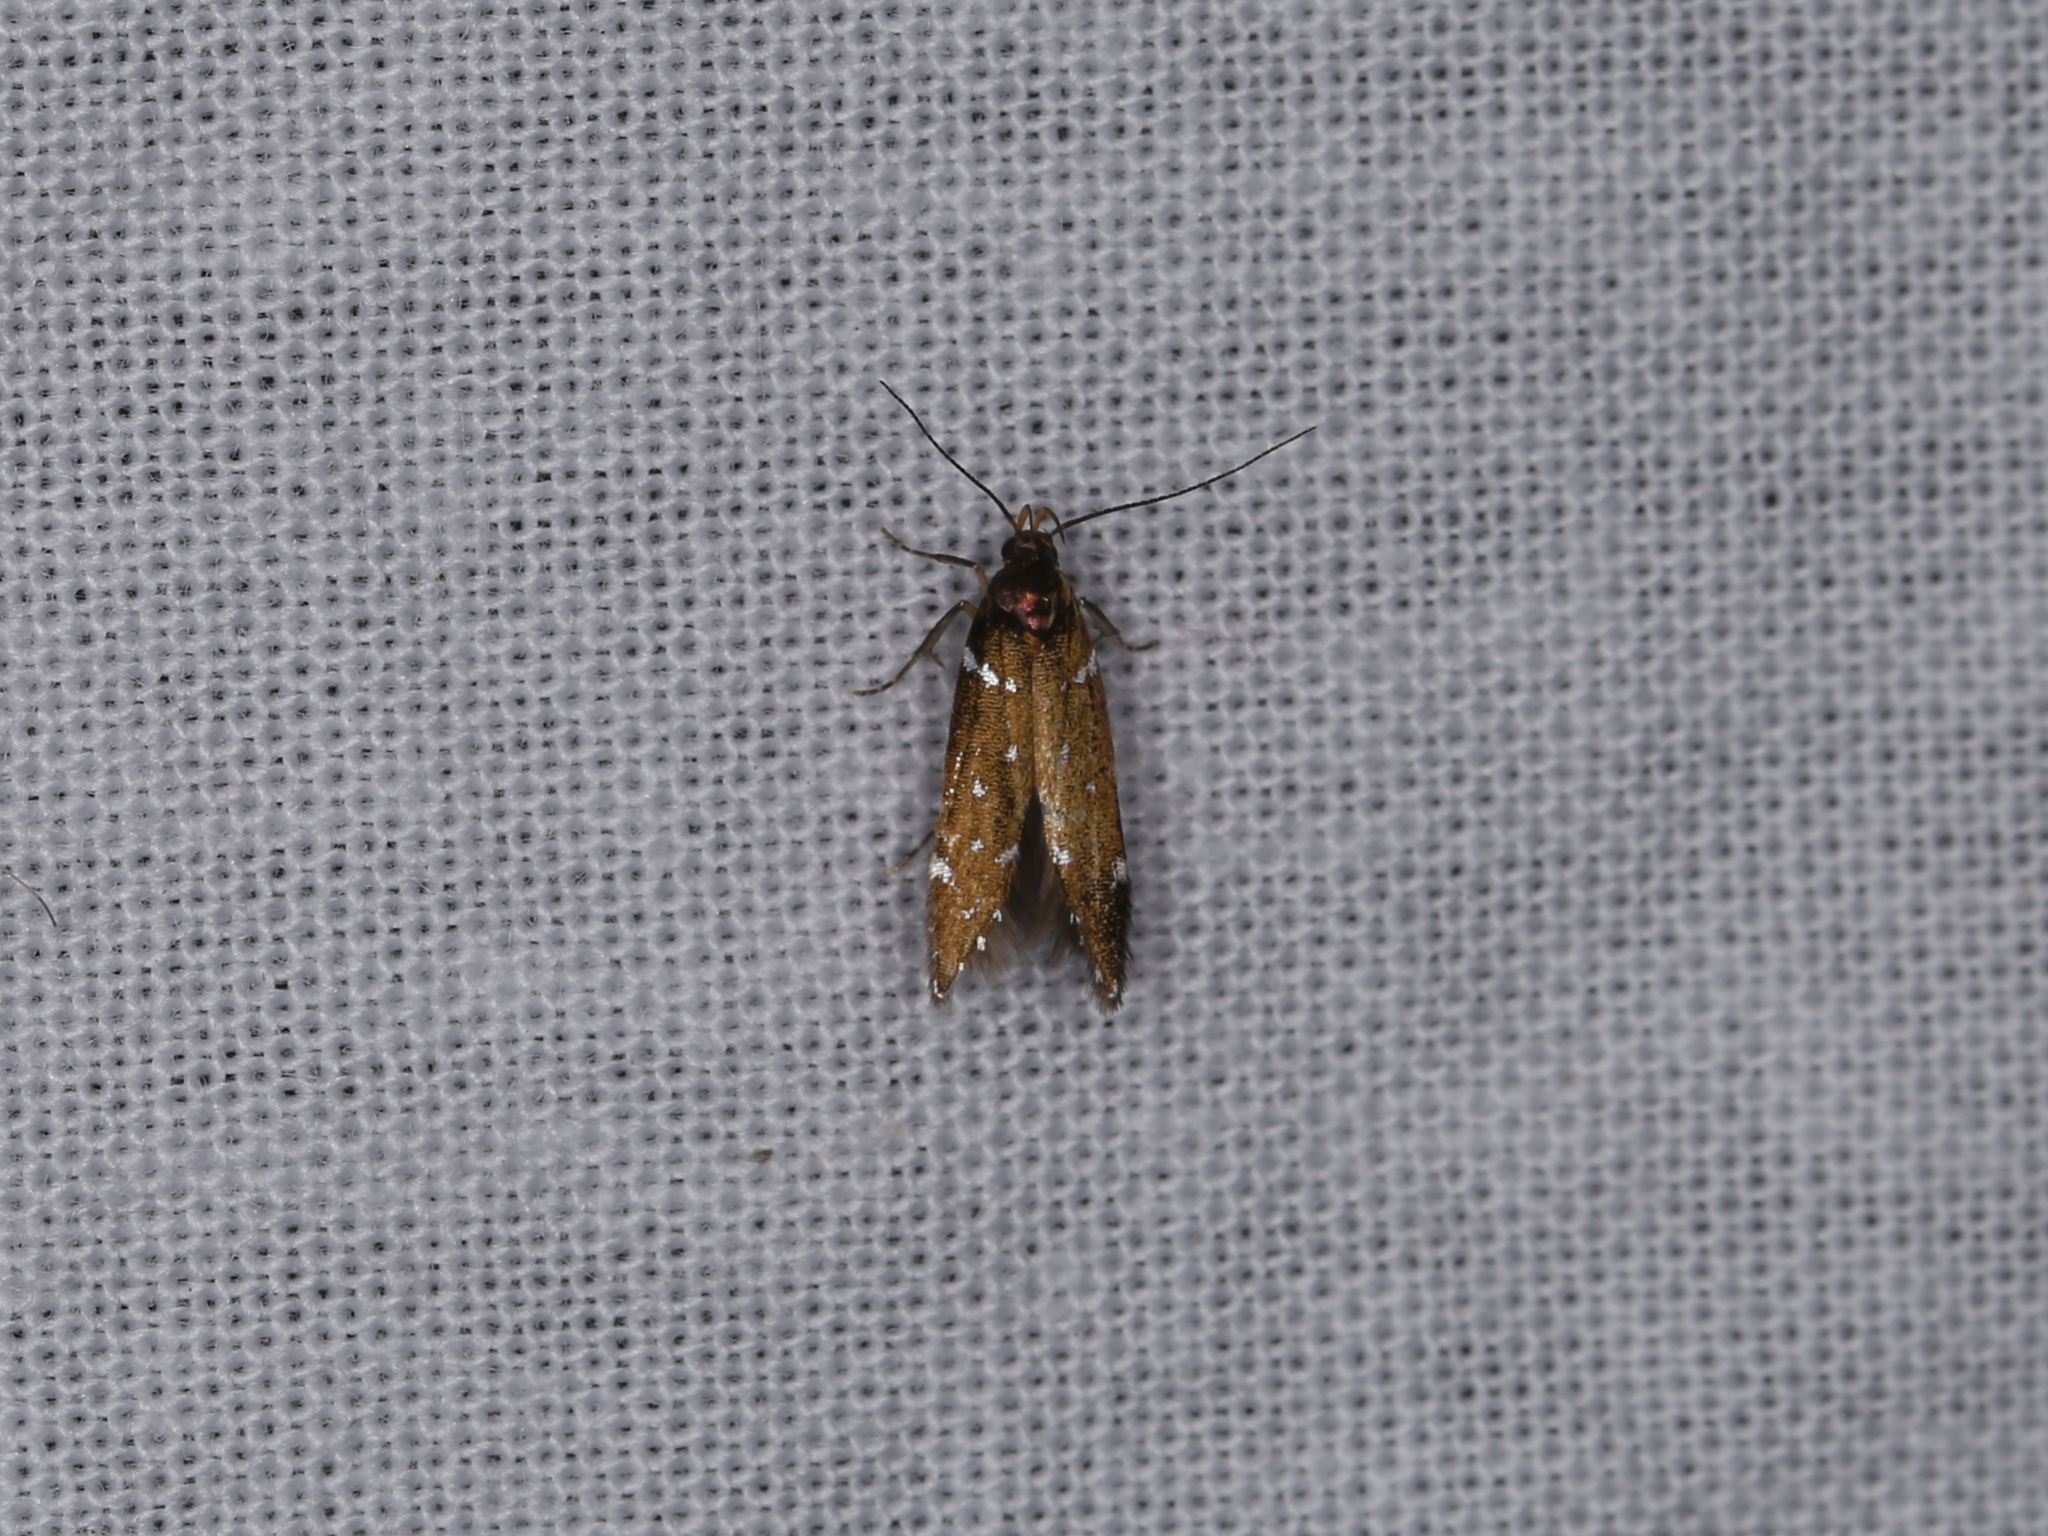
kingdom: Animalia
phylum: Arthropoda
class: Insecta
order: Lepidoptera
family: Gelechiidae
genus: Argolamprotes
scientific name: Argolamprotes micella
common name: Bright neb
